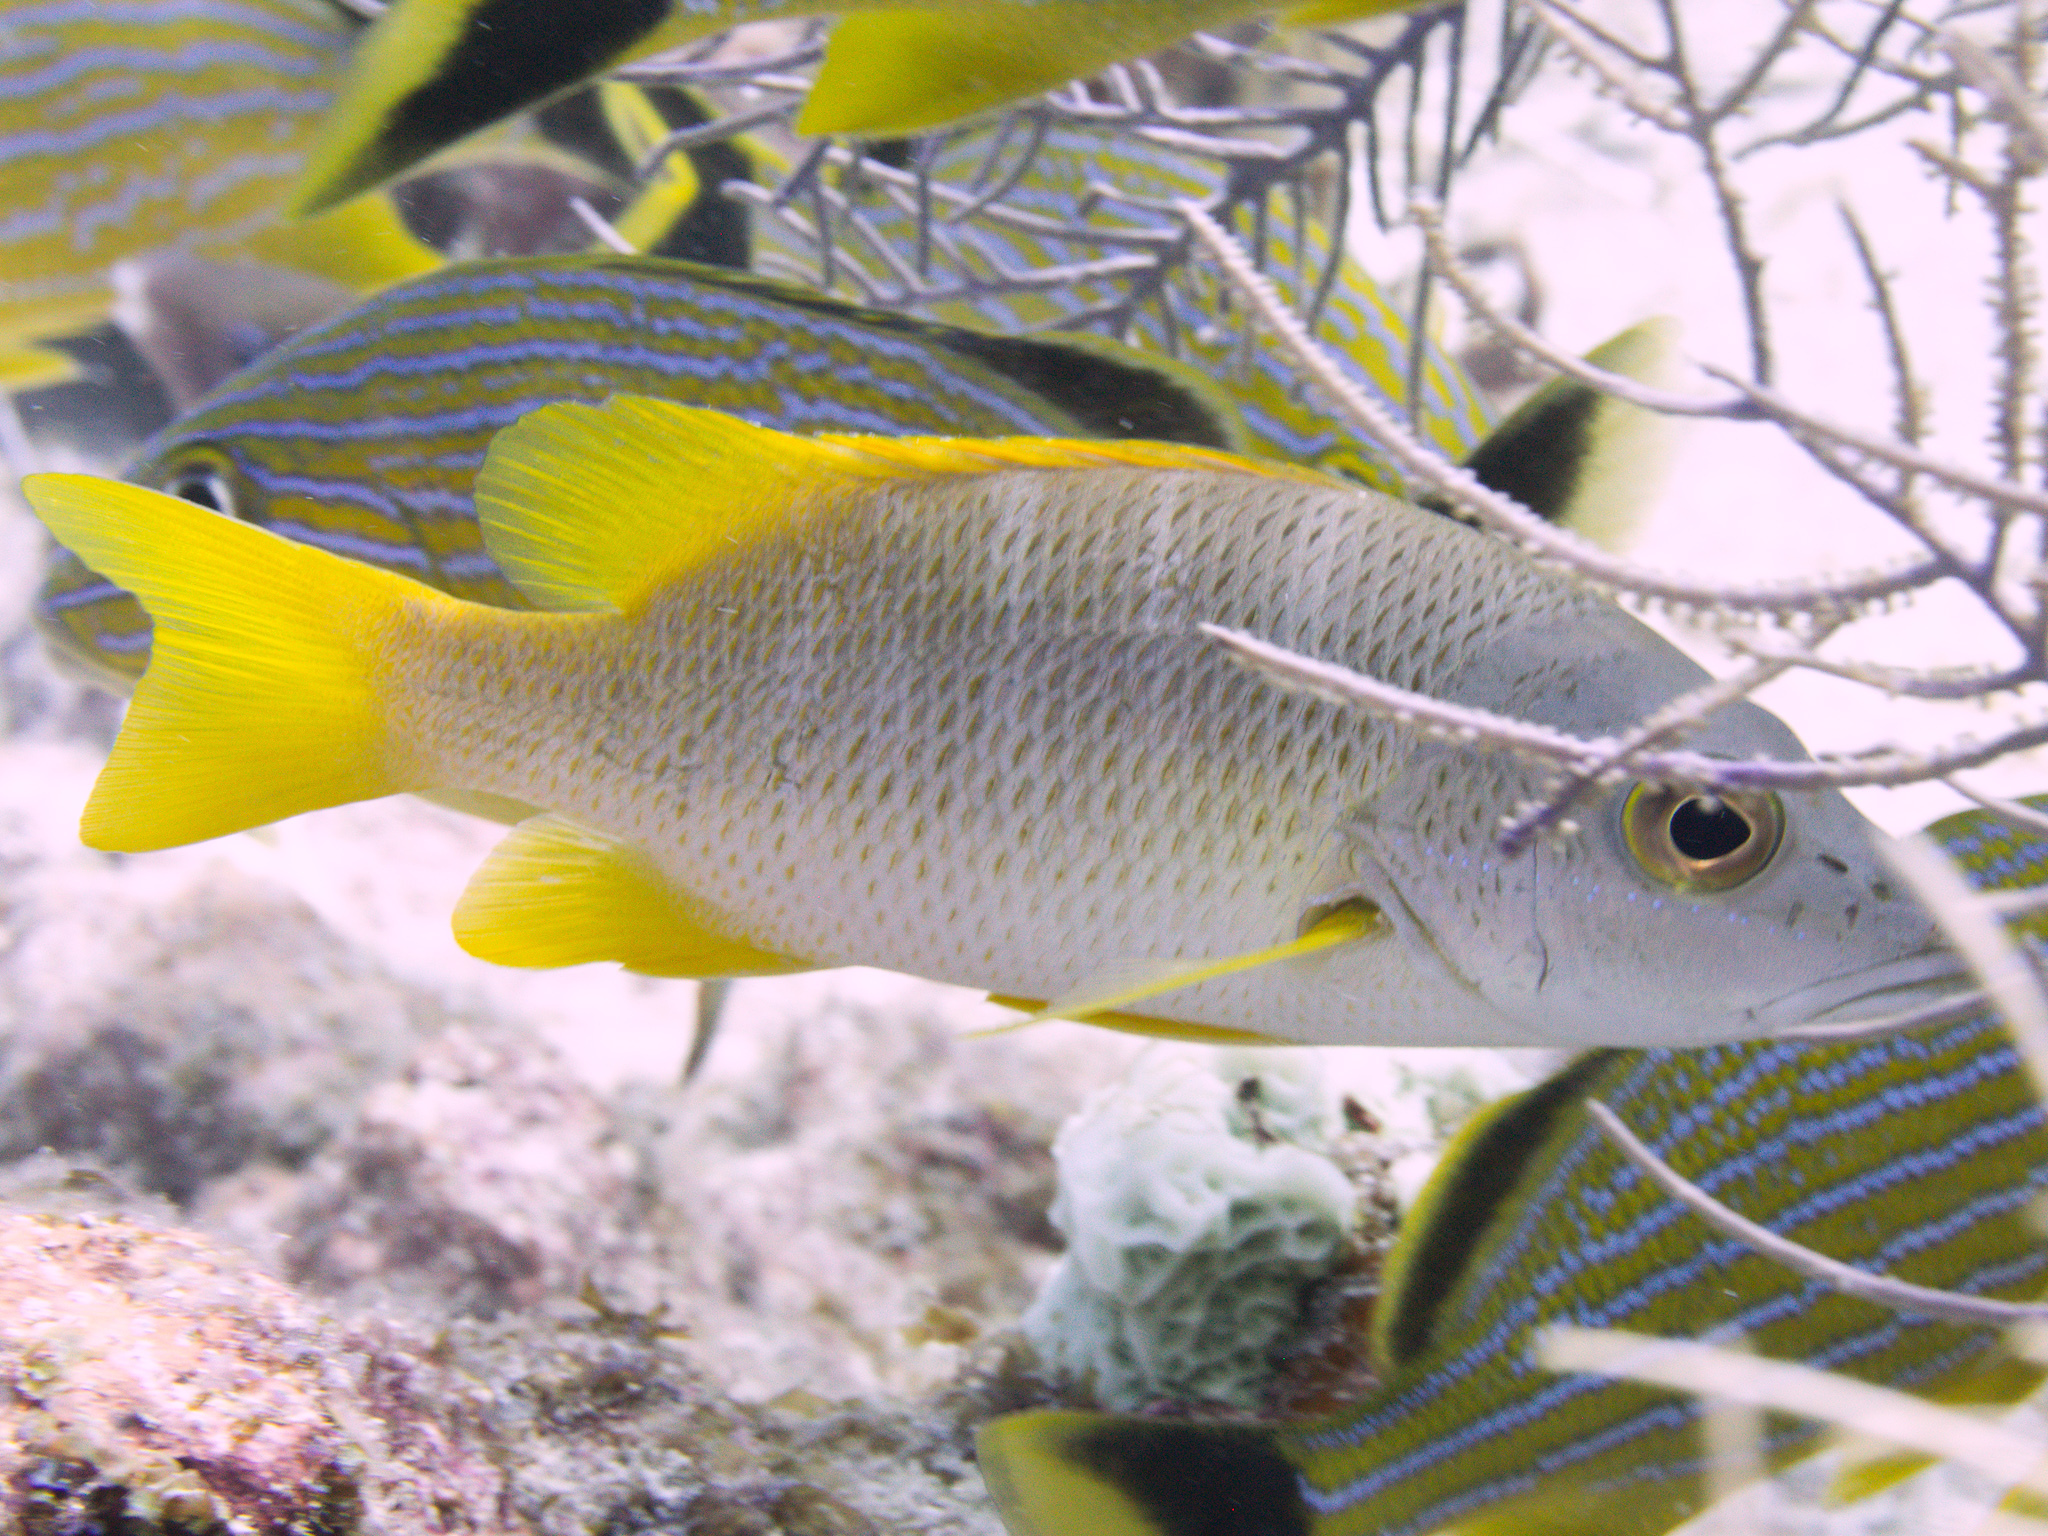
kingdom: Animalia
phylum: Chordata
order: Perciformes
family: Lutjanidae
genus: Lutjanus
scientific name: Lutjanus apodus
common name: Schoolmaster
